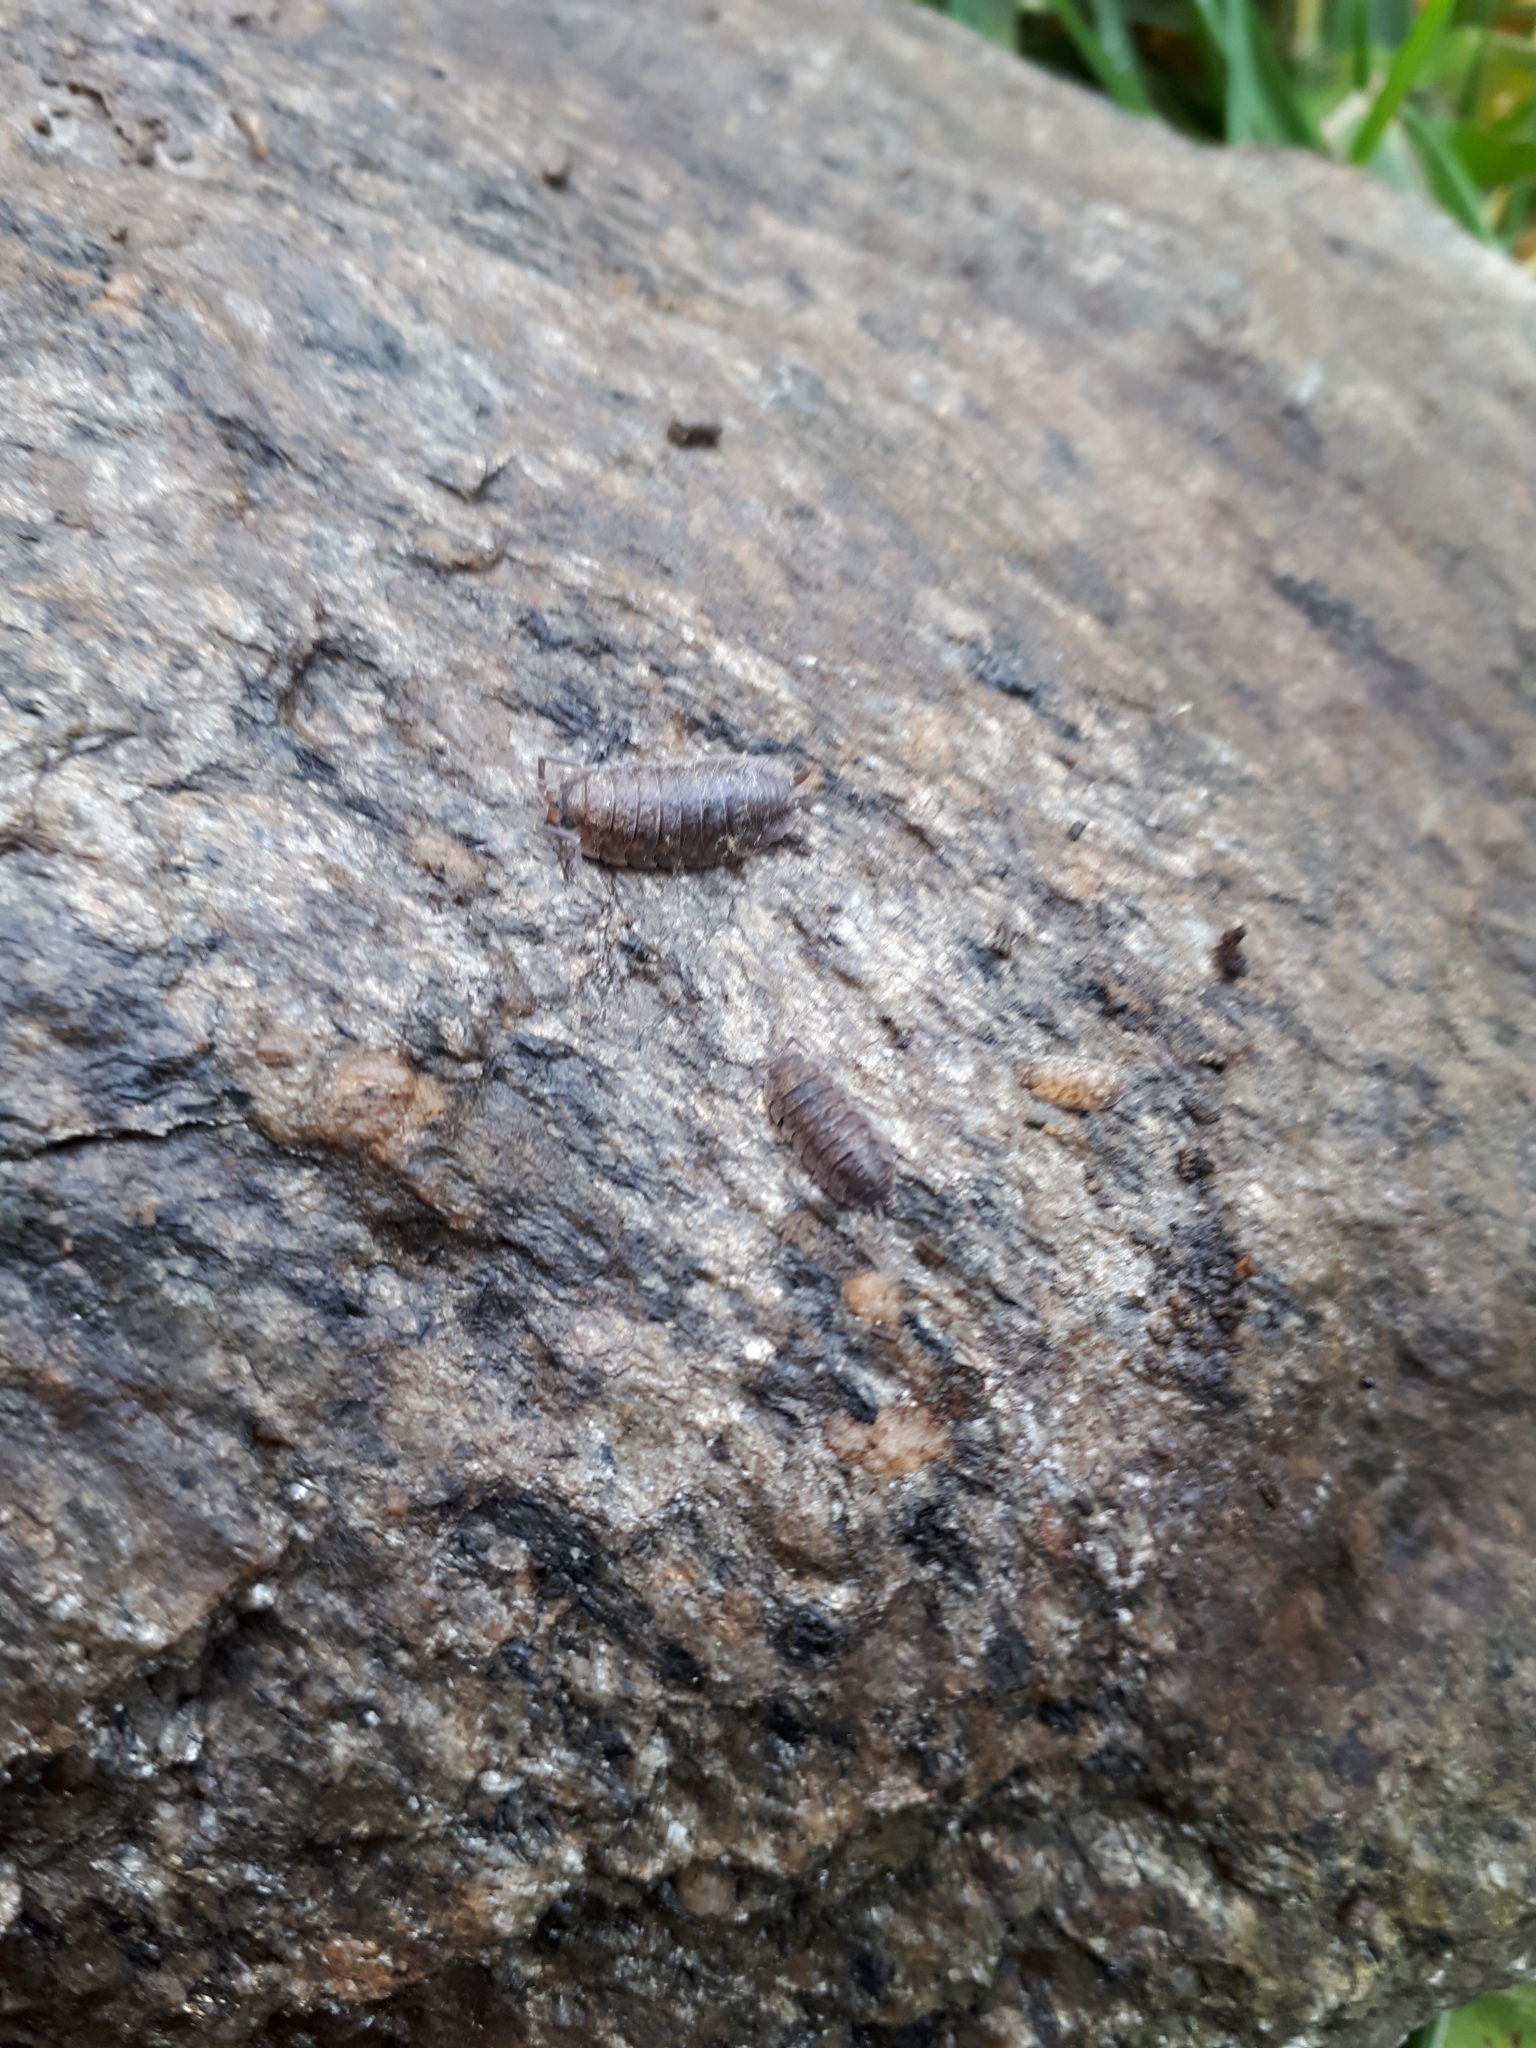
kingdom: Animalia
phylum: Arthropoda
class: Malacostraca
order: Isopoda
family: Porcellionidae
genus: Porcellio
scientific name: Porcellio scaber
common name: Common rough woodlouse
